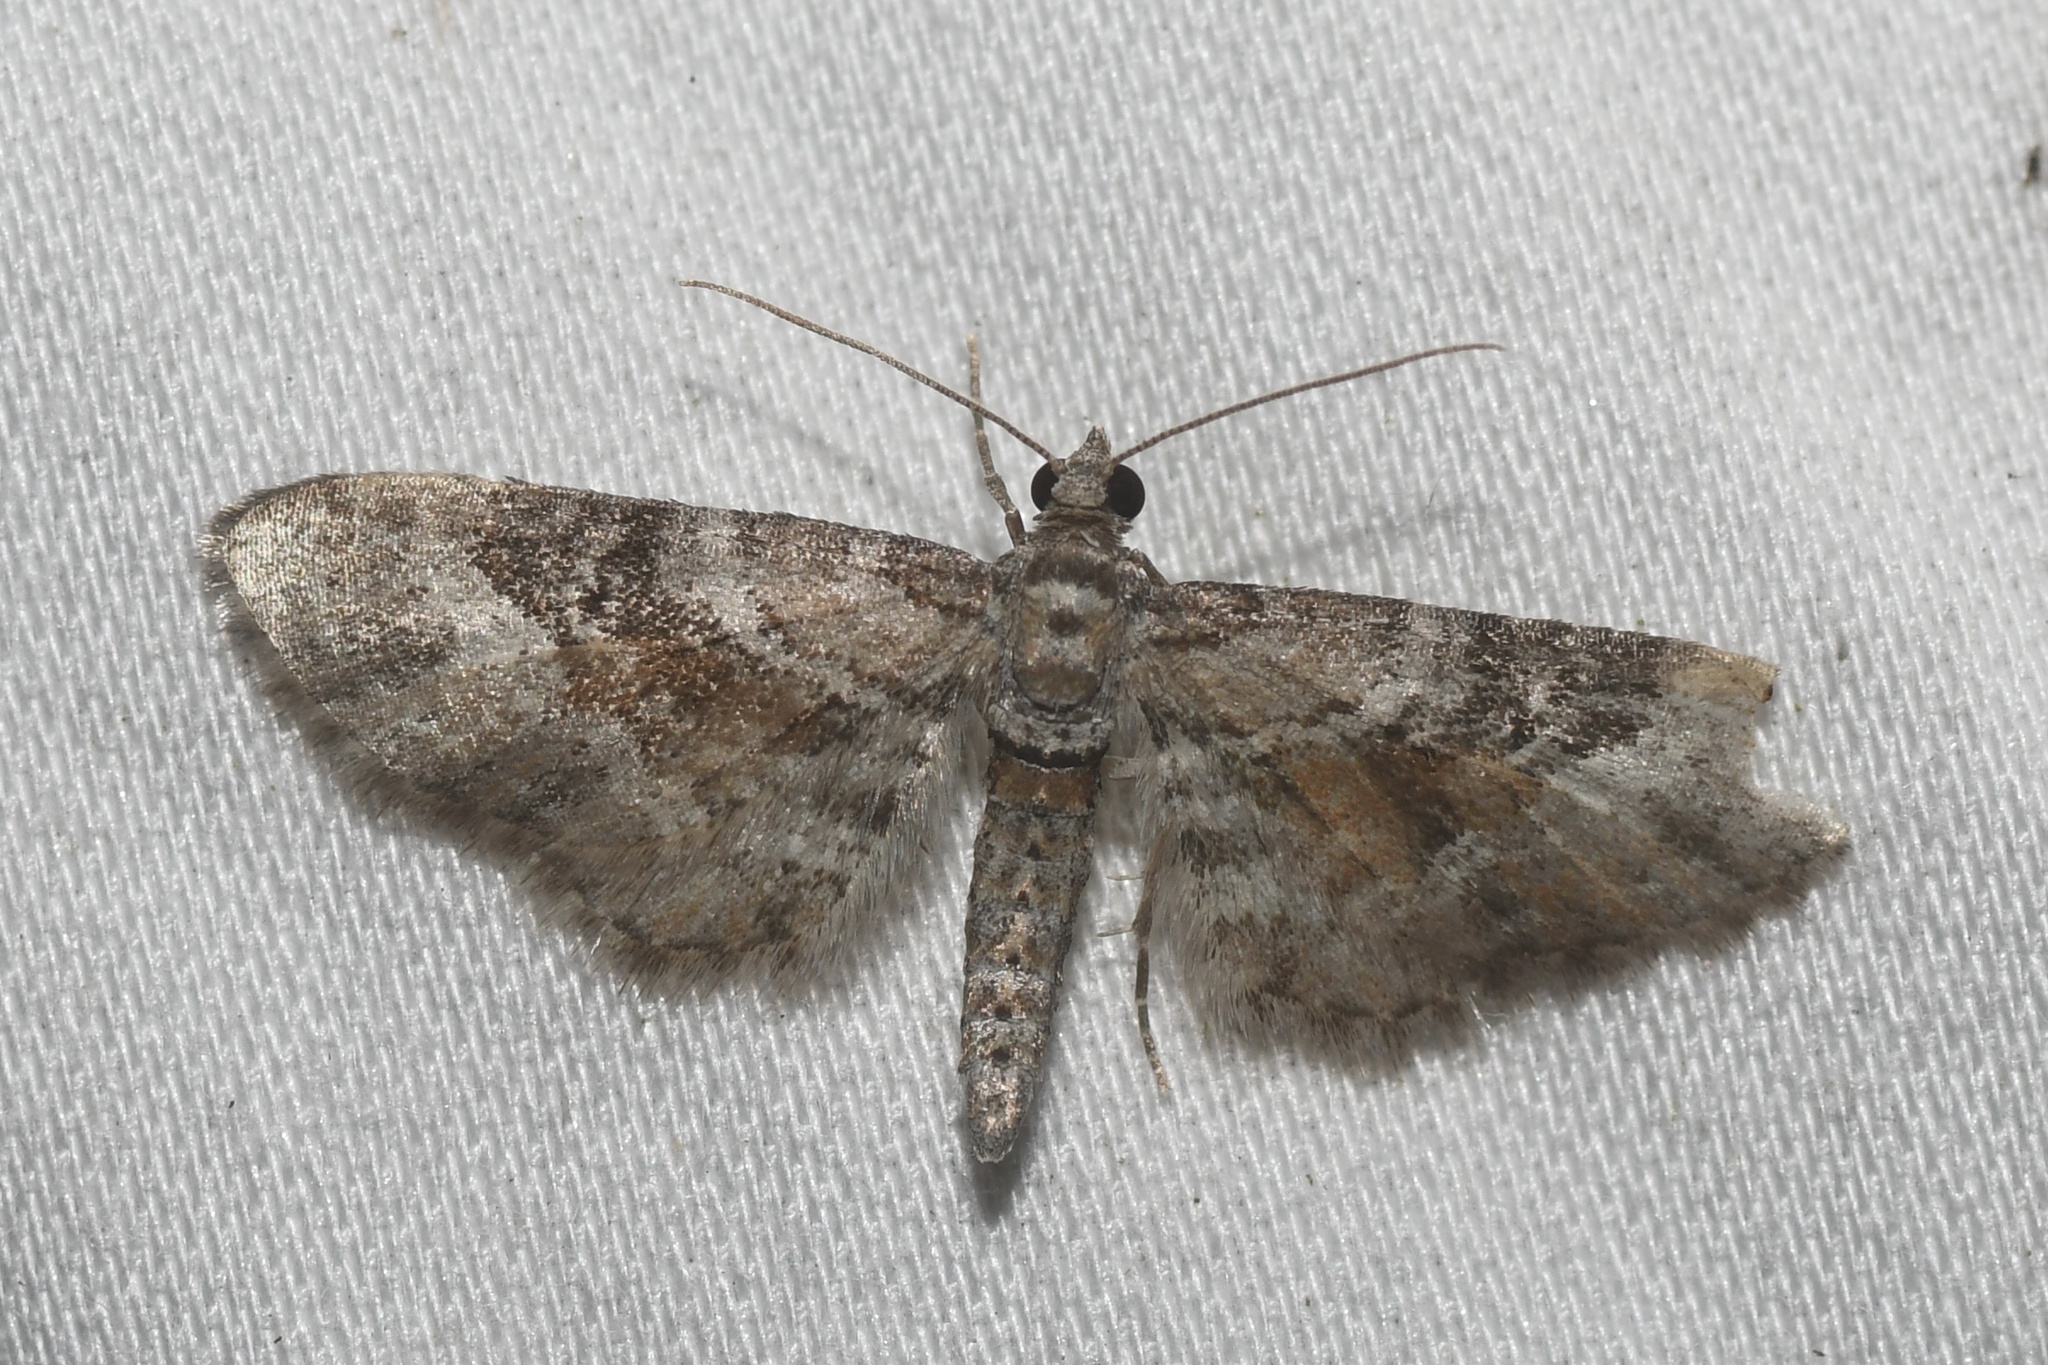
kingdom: Animalia
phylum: Arthropoda
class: Insecta
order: Lepidoptera
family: Geometridae
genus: Eupithecia
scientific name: Eupithecia anticaria
